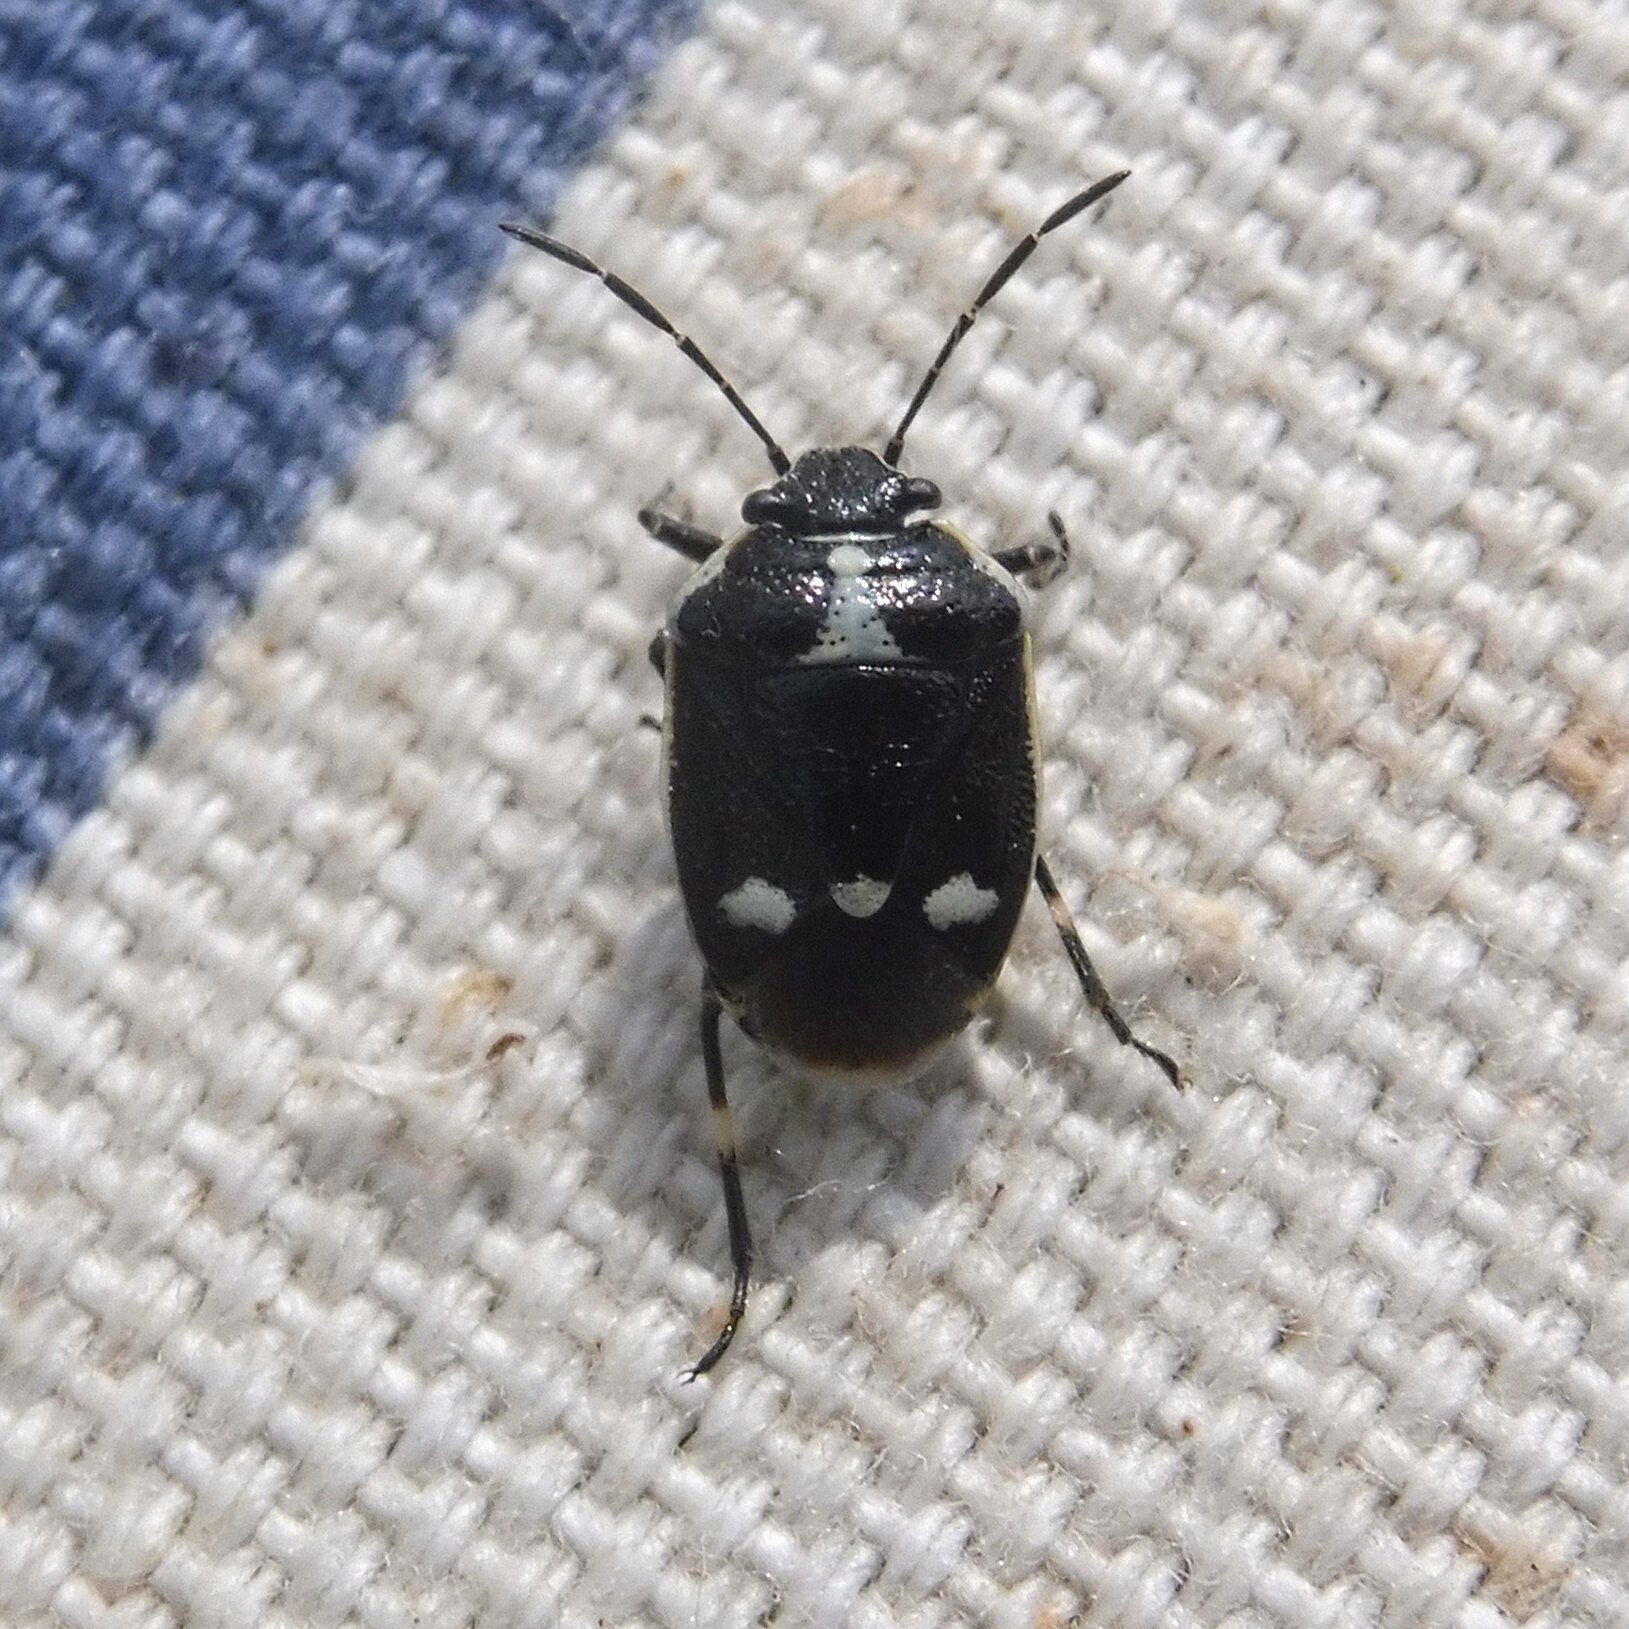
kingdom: Animalia
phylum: Arthropoda
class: Insecta
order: Hemiptera
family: Pentatomidae
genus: Eurydema
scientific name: Eurydema oleracea
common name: Cabbage bug
